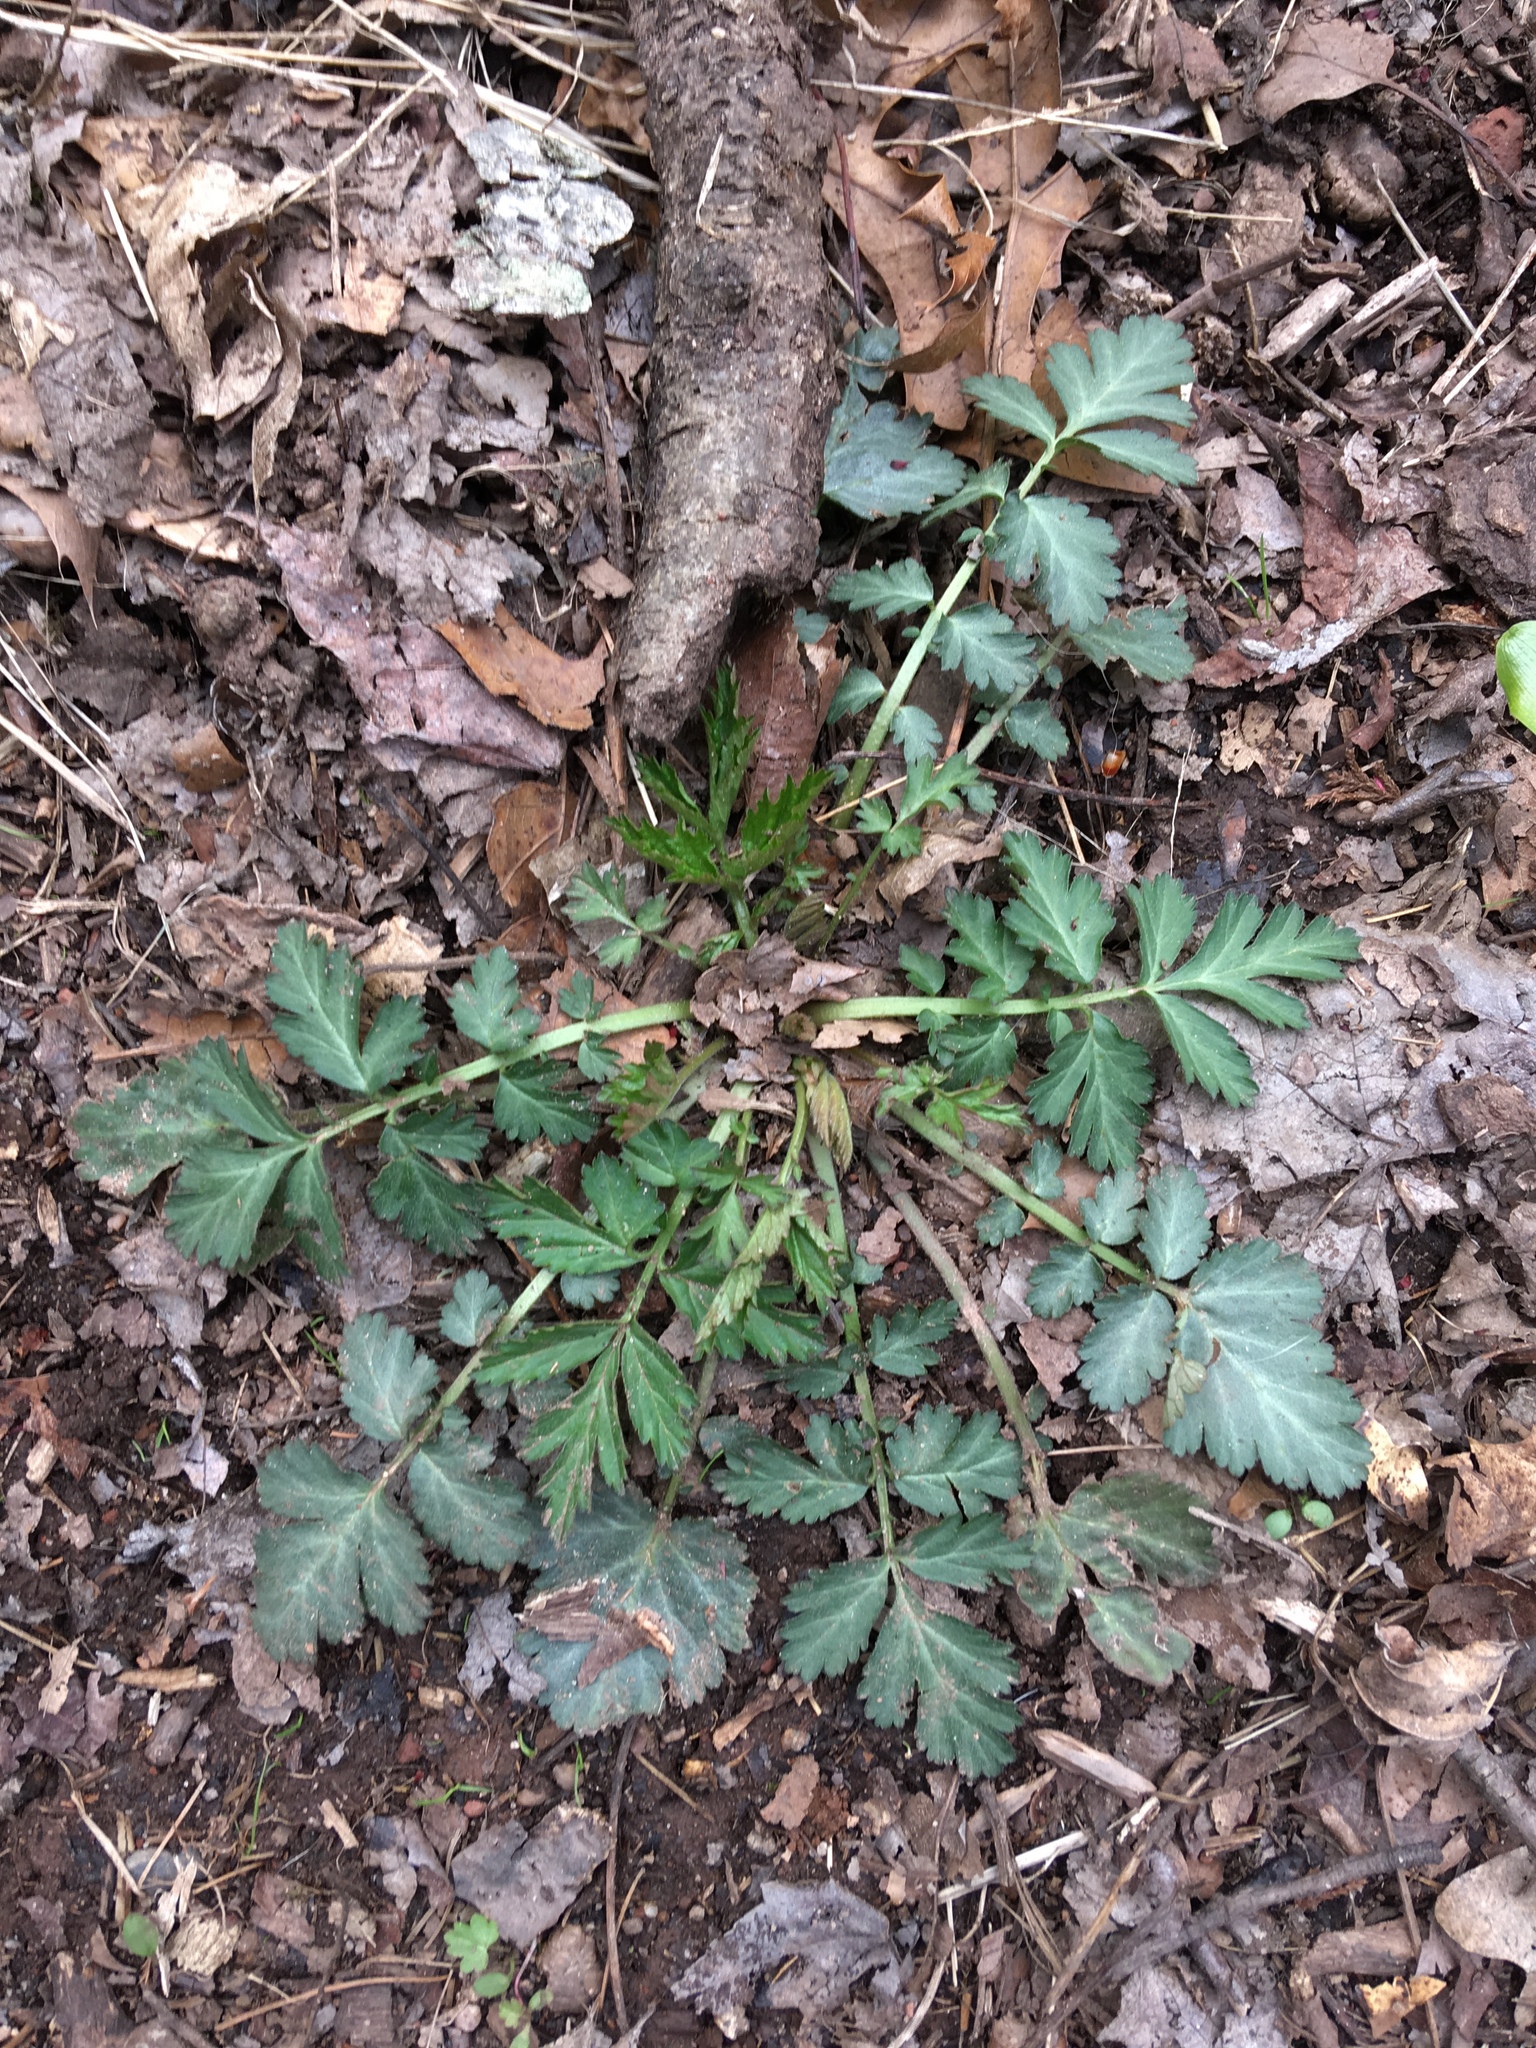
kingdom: Plantae
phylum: Tracheophyta
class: Magnoliopsida
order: Rosales
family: Rosaceae
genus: Geum
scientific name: Geum canadense
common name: White avens
